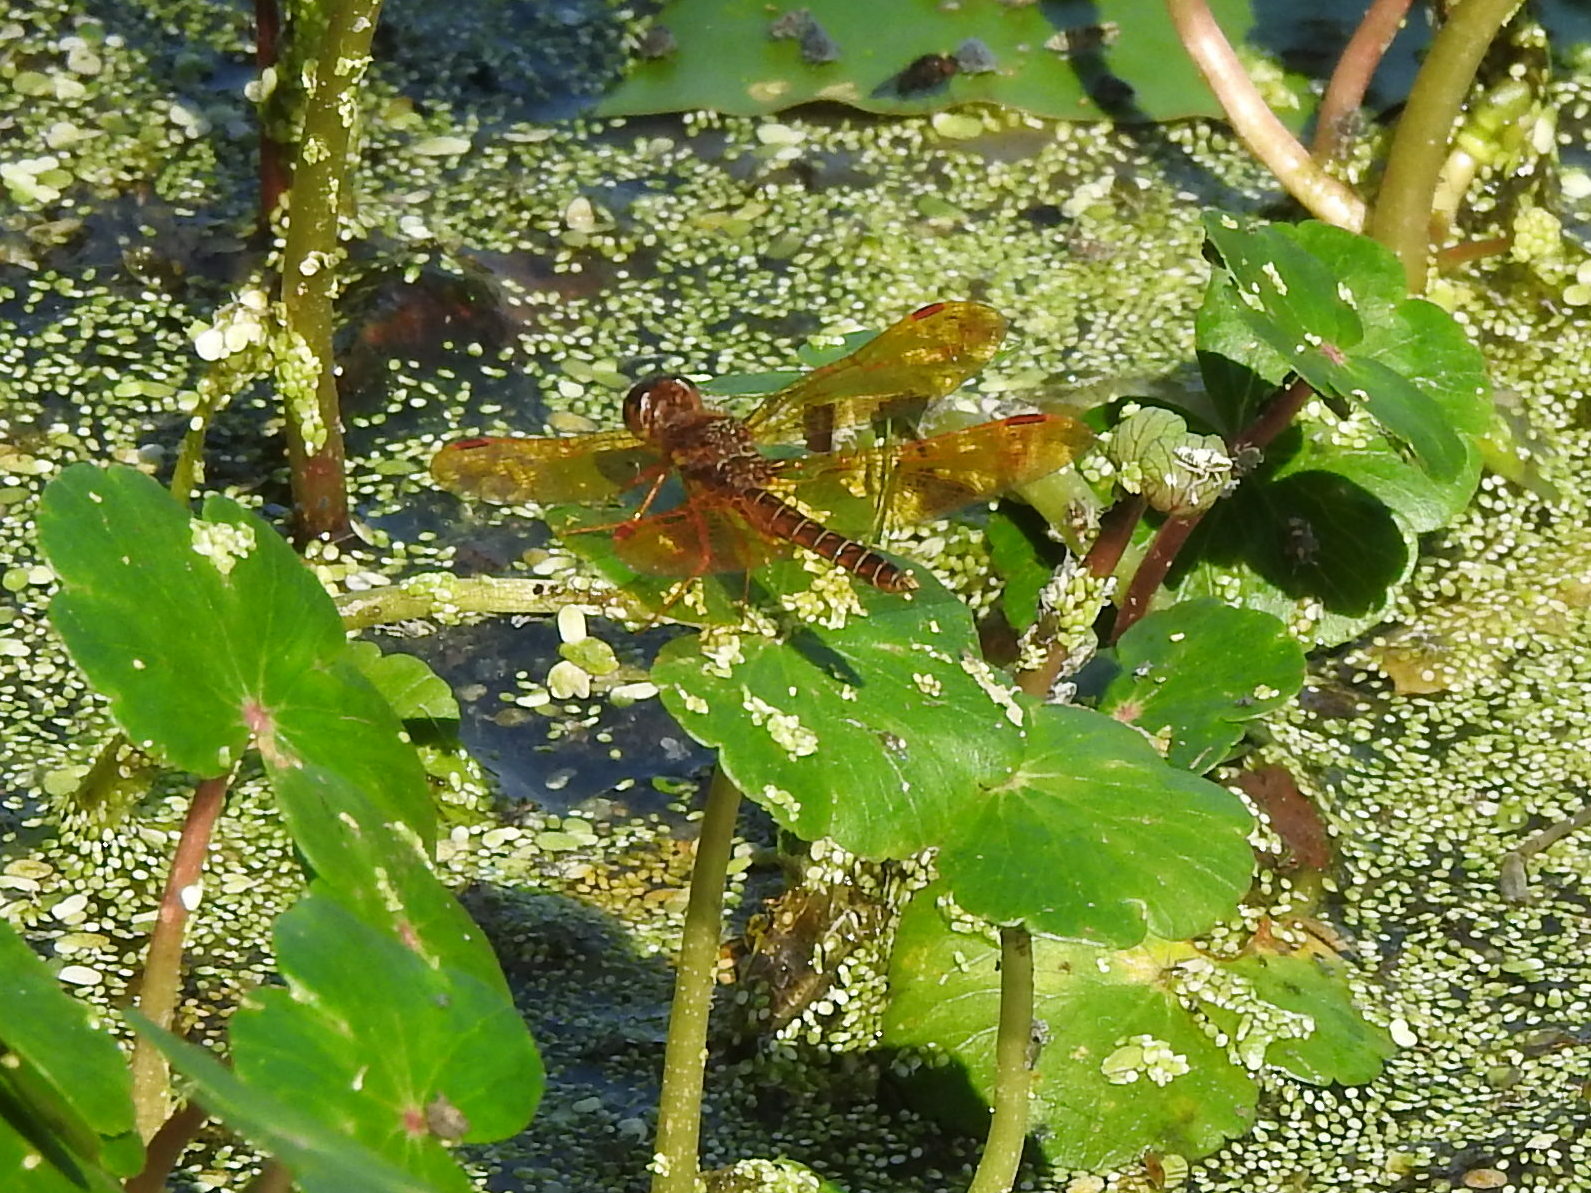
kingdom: Animalia
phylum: Arthropoda
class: Insecta
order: Odonata
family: Libellulidae
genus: Perithemis
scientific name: Perithemis tenera
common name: Eastern amberwing
